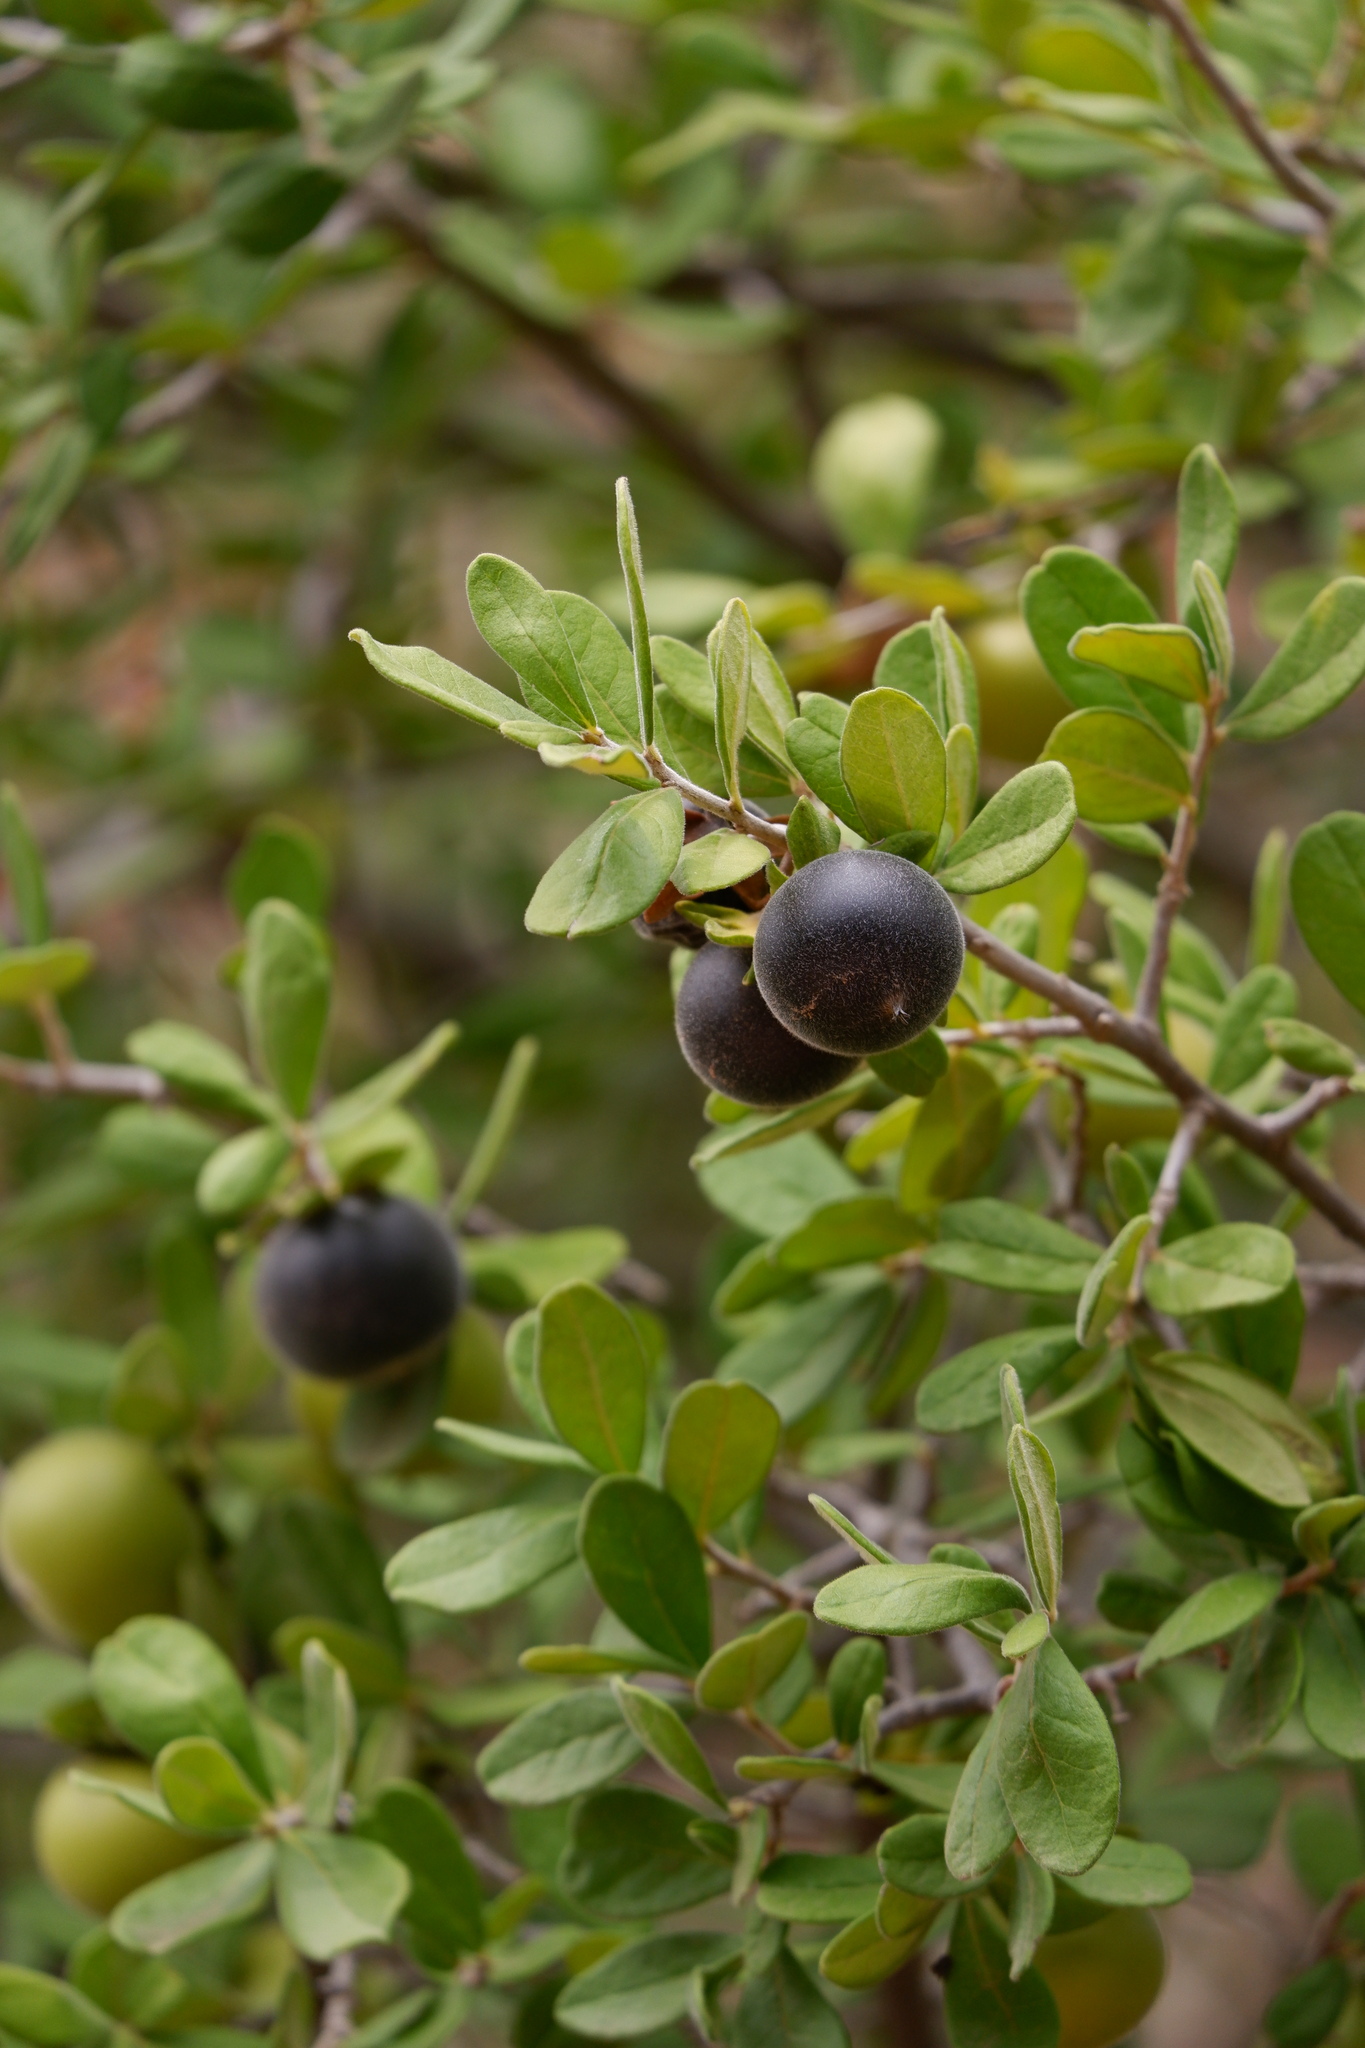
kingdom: Plantae
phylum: Tracheophyta
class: Magnoliopsida
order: Ericales
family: Ebenaceae
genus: Diospyros
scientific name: Diospyros texana
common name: Texas persimmon
